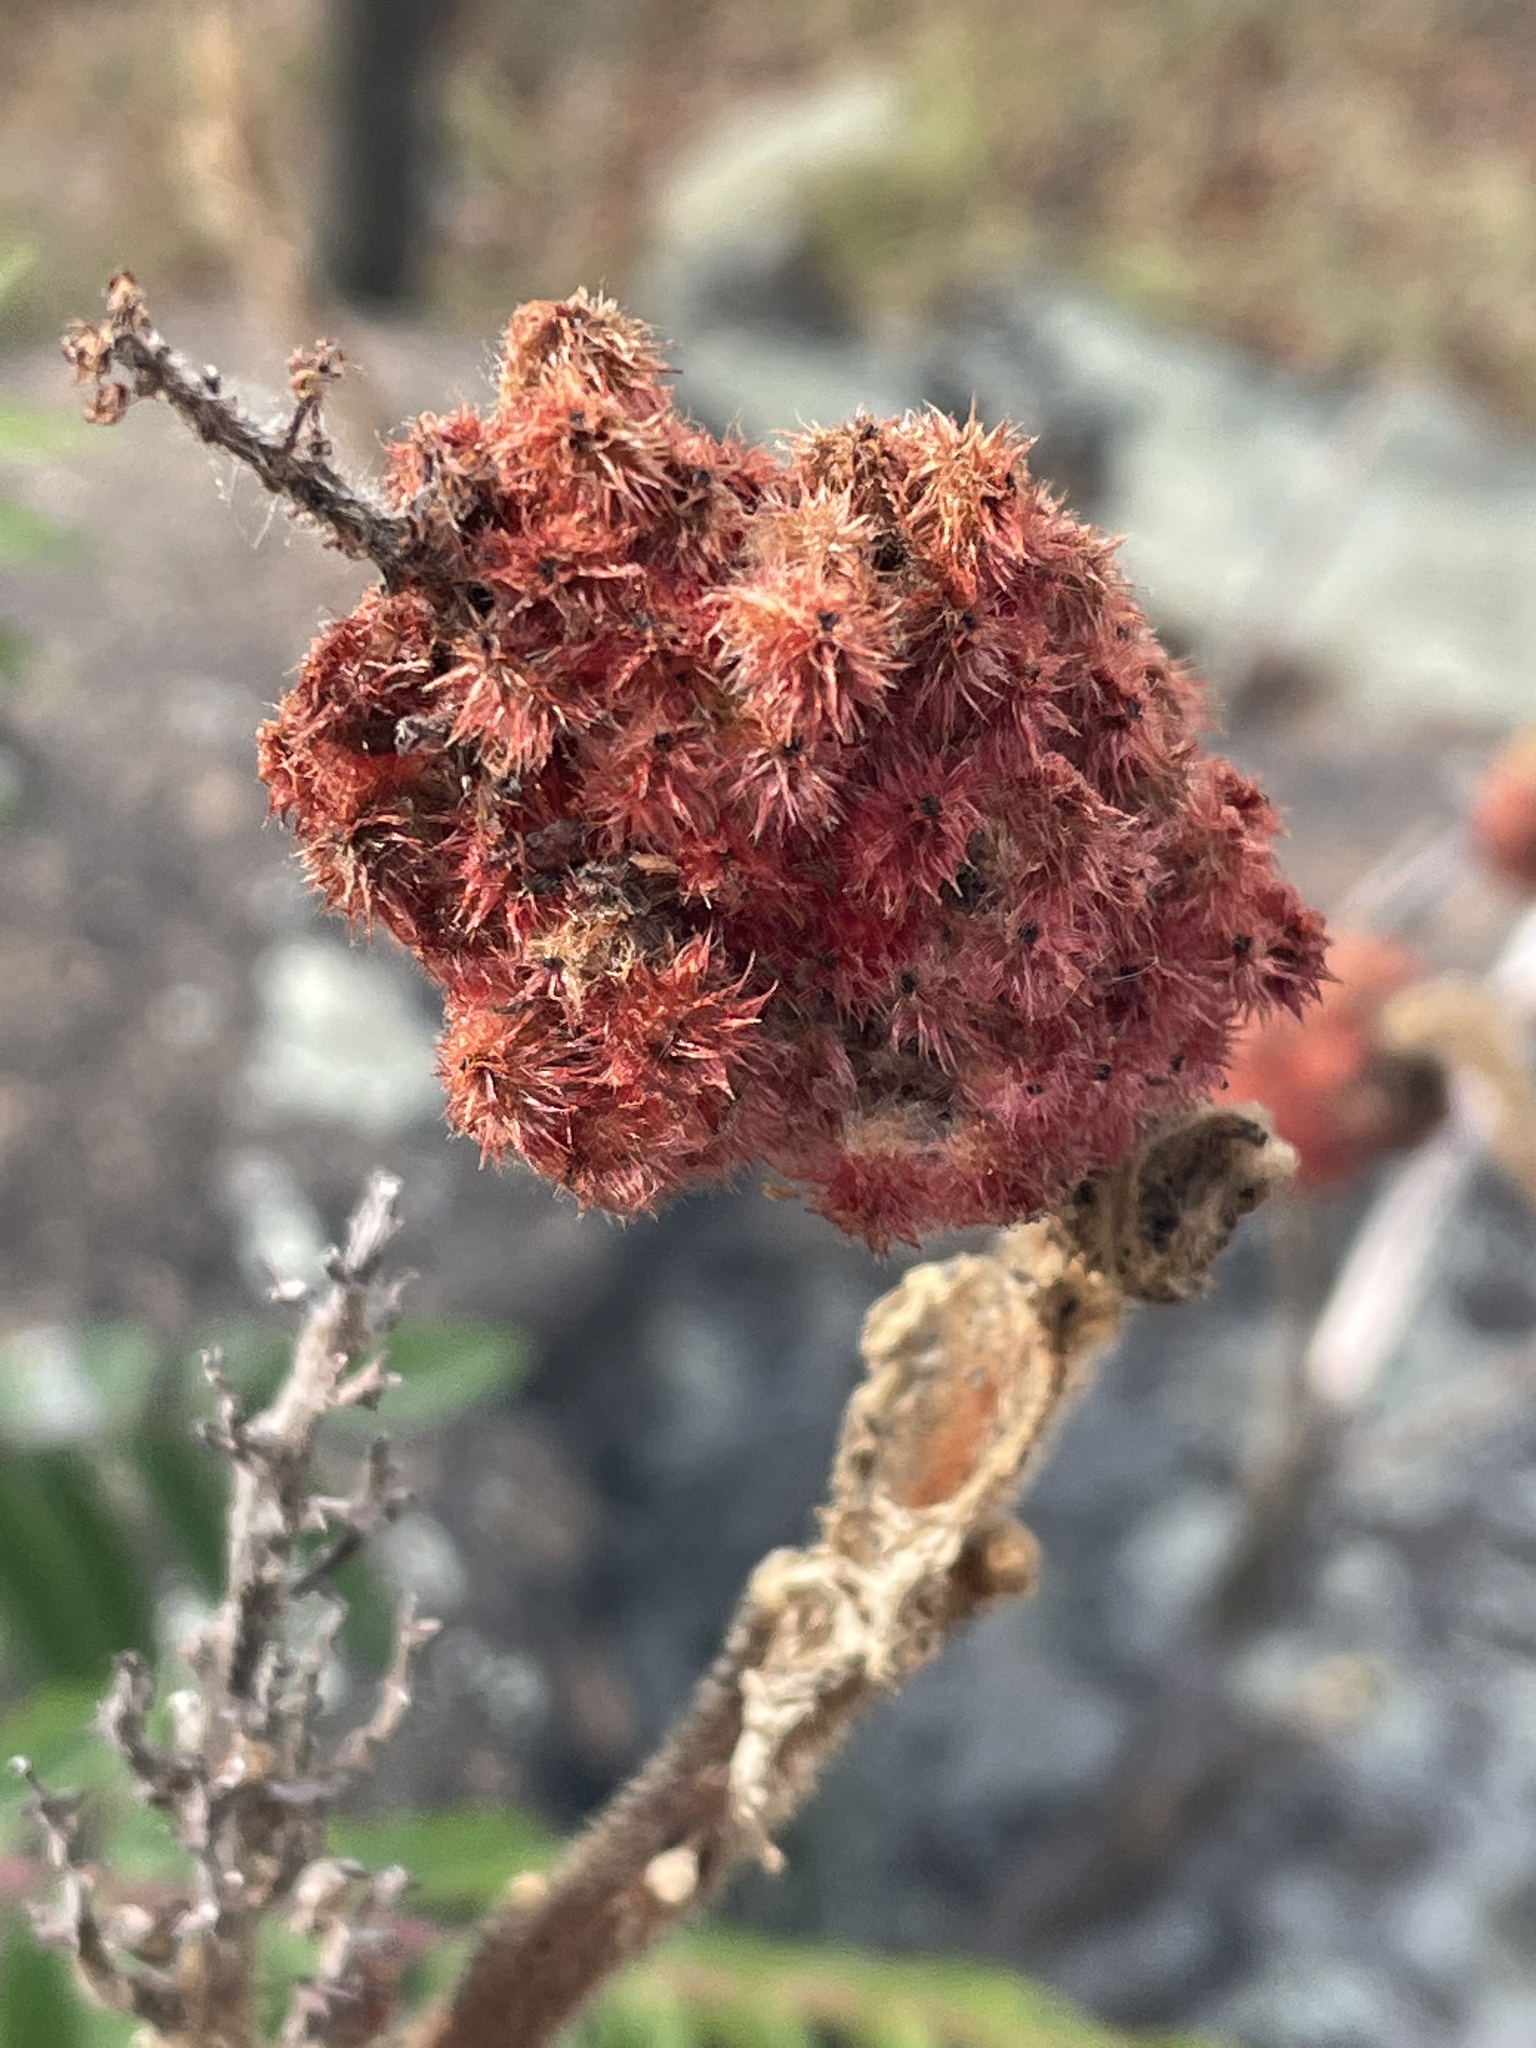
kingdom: Plantae
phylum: Tracheophyta
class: Magnoliopsida
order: Sapindales
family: Anacardiaceae
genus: Rhus
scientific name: Rhus typhina
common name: Staghorn sumac
